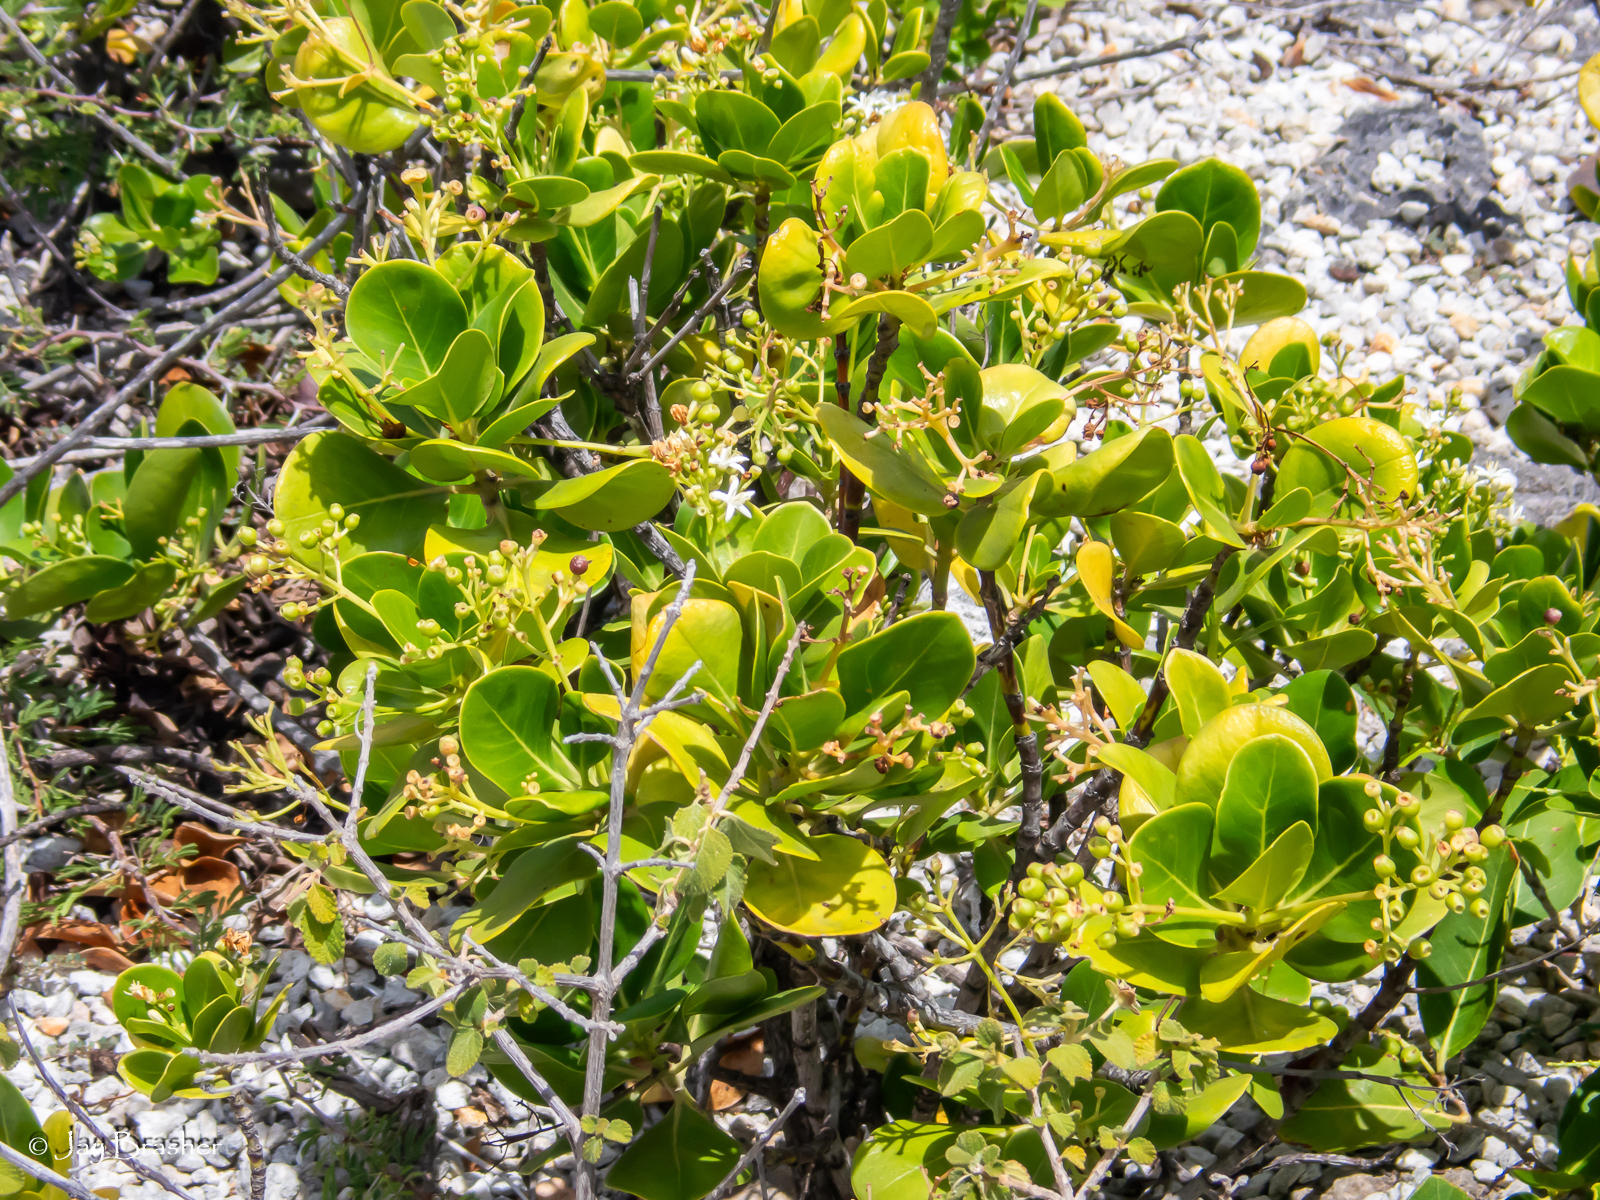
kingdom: Plantae
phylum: Tracheophyta
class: Magnoliopsida
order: Gentianales
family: Rubiaceae
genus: Erithalis
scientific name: Erithalis fruticosa
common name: Candlewood
